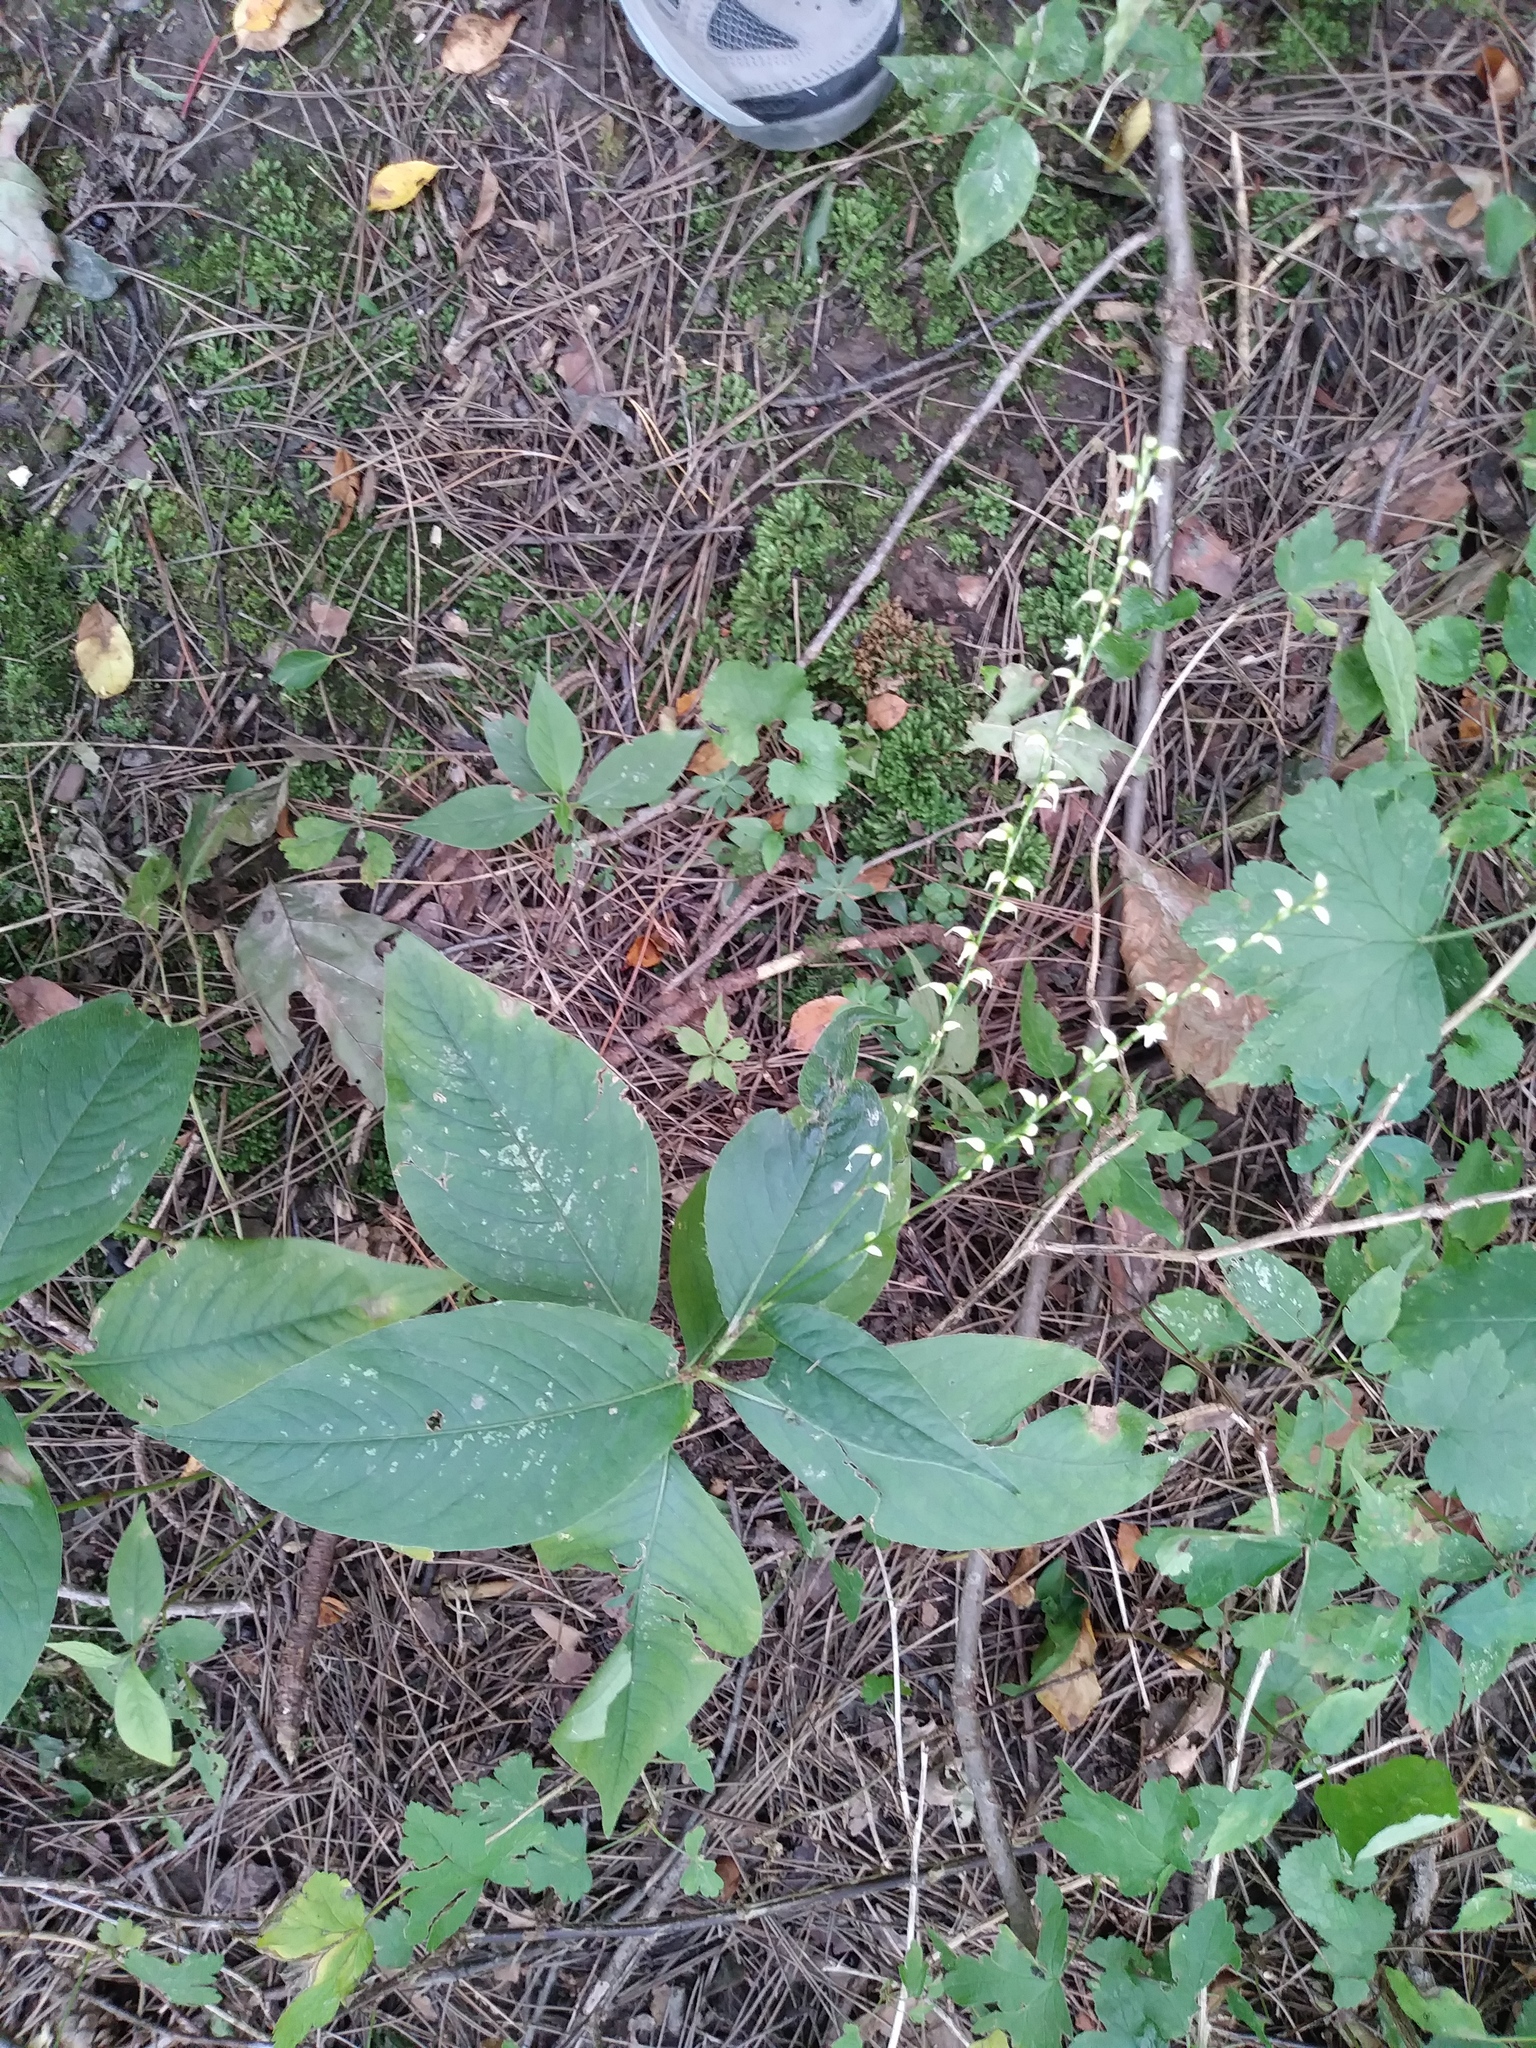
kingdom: Plantae
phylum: Tracheophyta
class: Magnoliopsida
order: Caryophyllales
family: Polygonaceae
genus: Persicaria
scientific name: Persicaria virginiana
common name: Jumpseed
